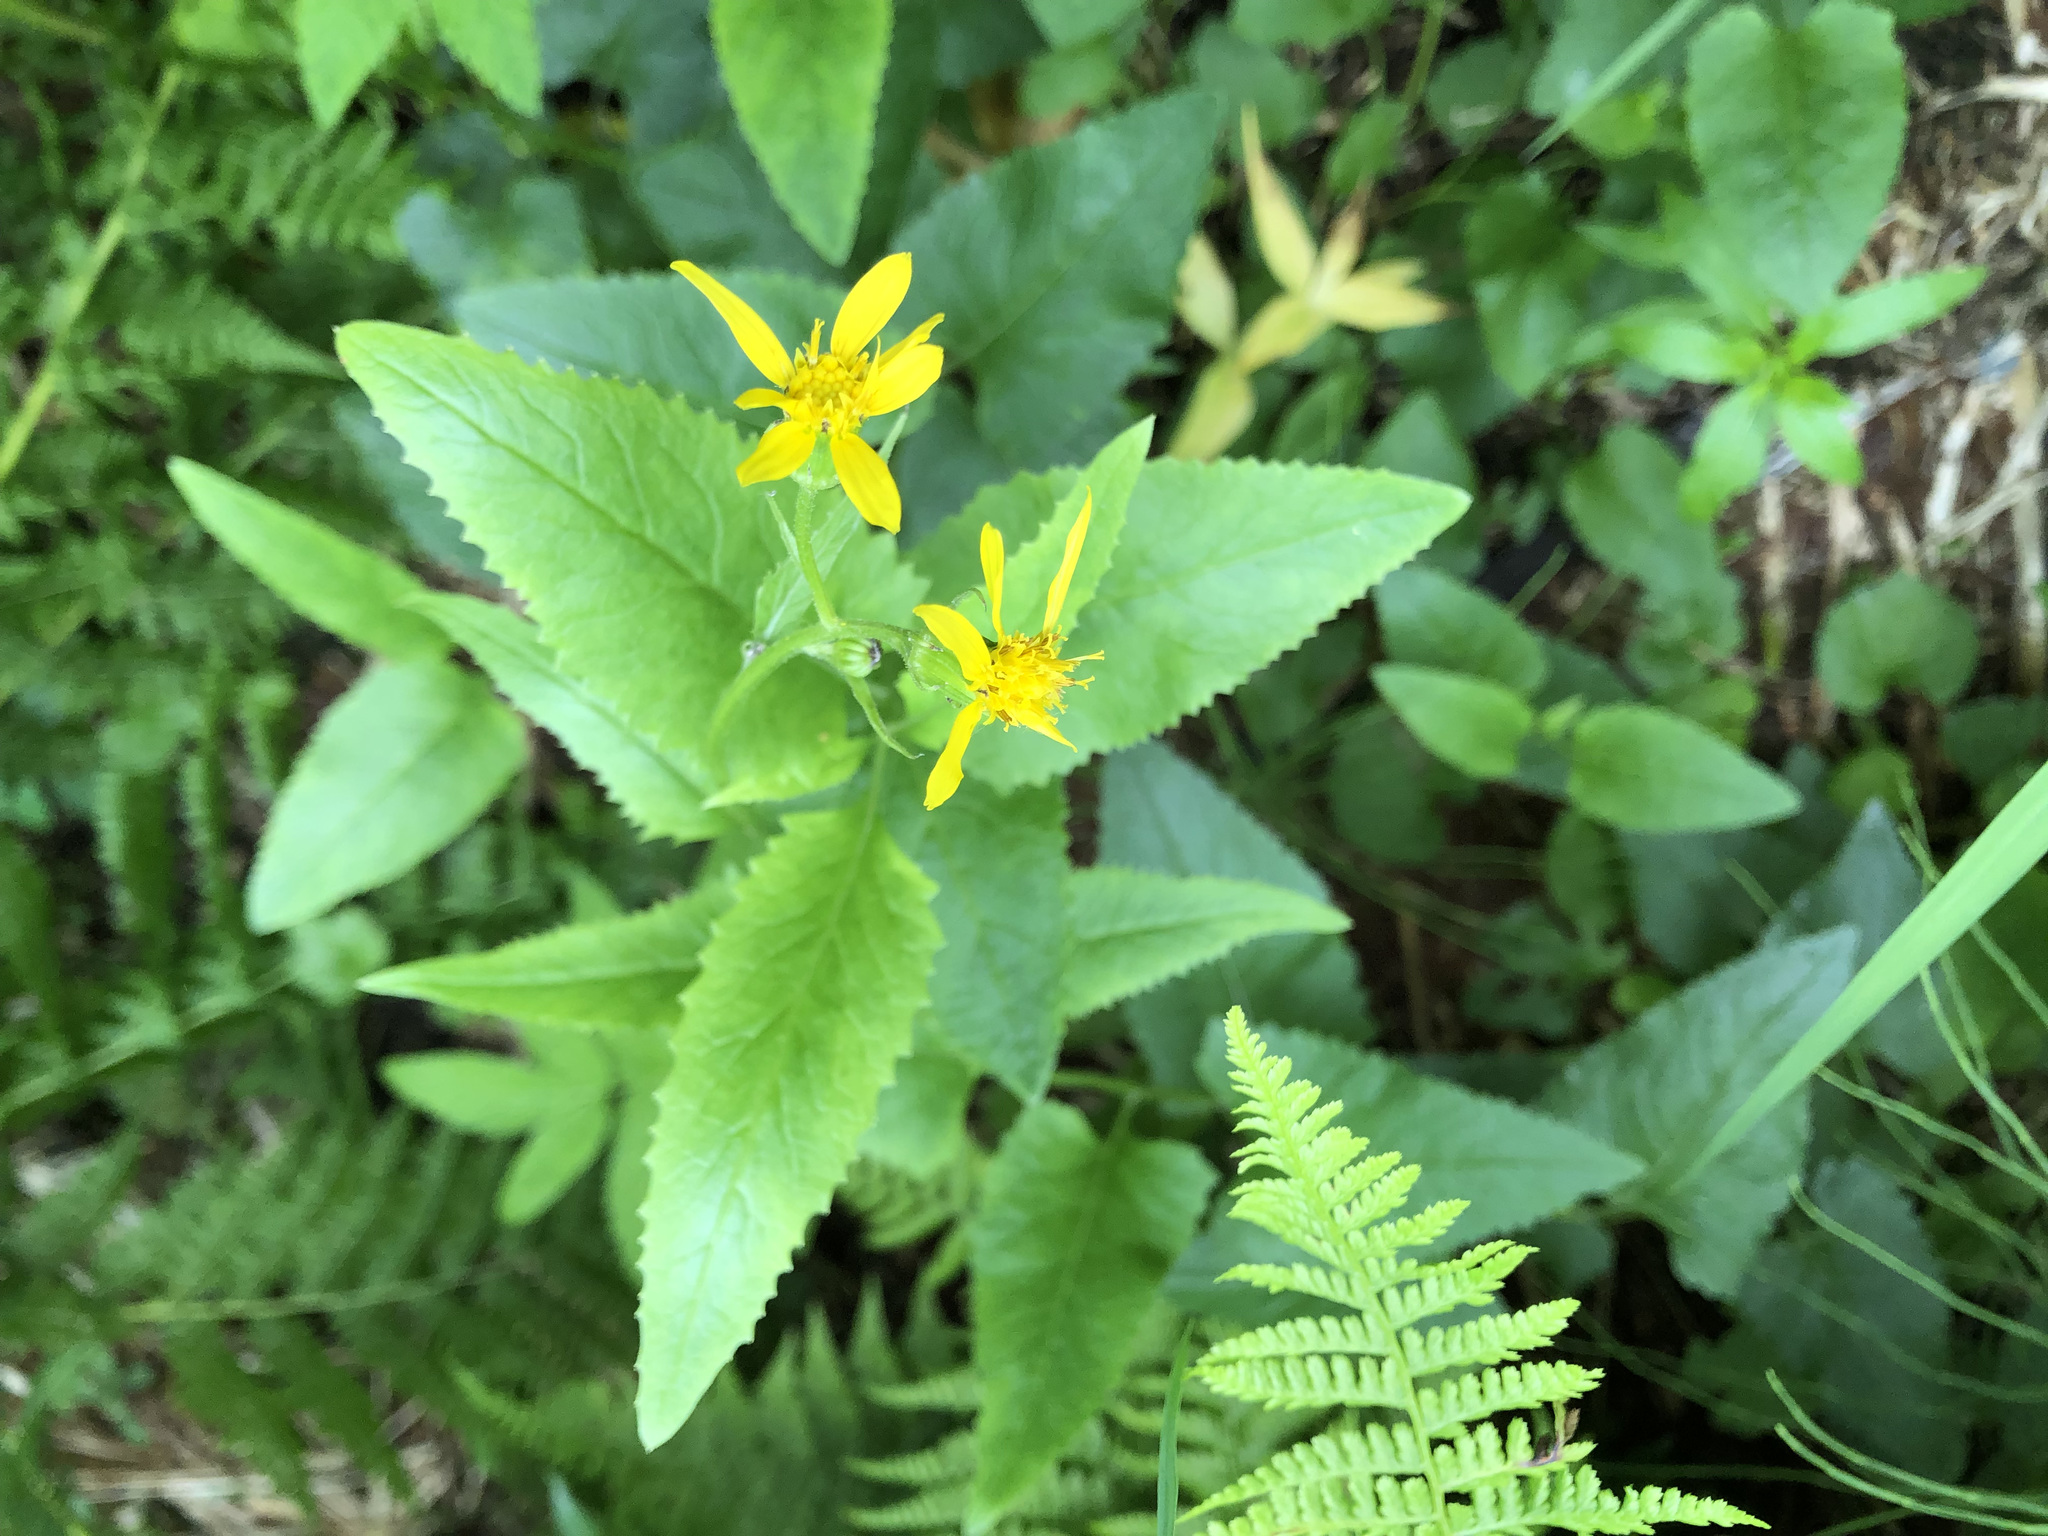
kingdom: Plantae
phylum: Tracheophyta
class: Magnoliopsida
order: Asterales
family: Asteraceae
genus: Senecio
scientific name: Senecio triangularis
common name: Arrowleaf butterweed
